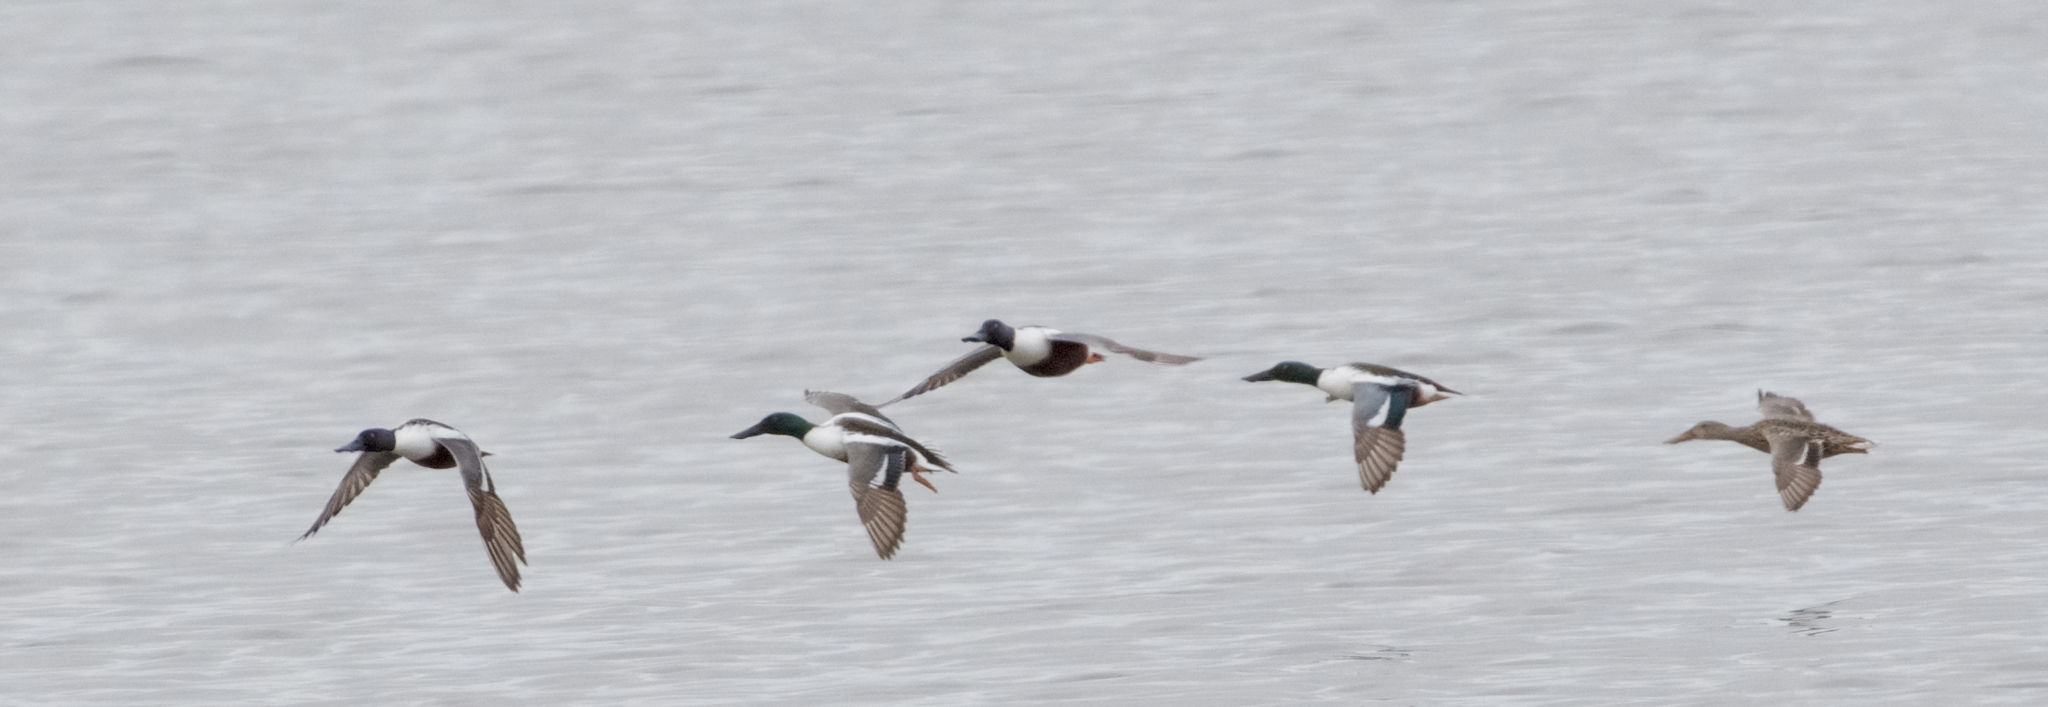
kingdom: Animalia
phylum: Chordata
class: Aves
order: Anseriformes
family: Anatidae
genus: Spatula
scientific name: Spatula clypeata
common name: Northern shoveler
